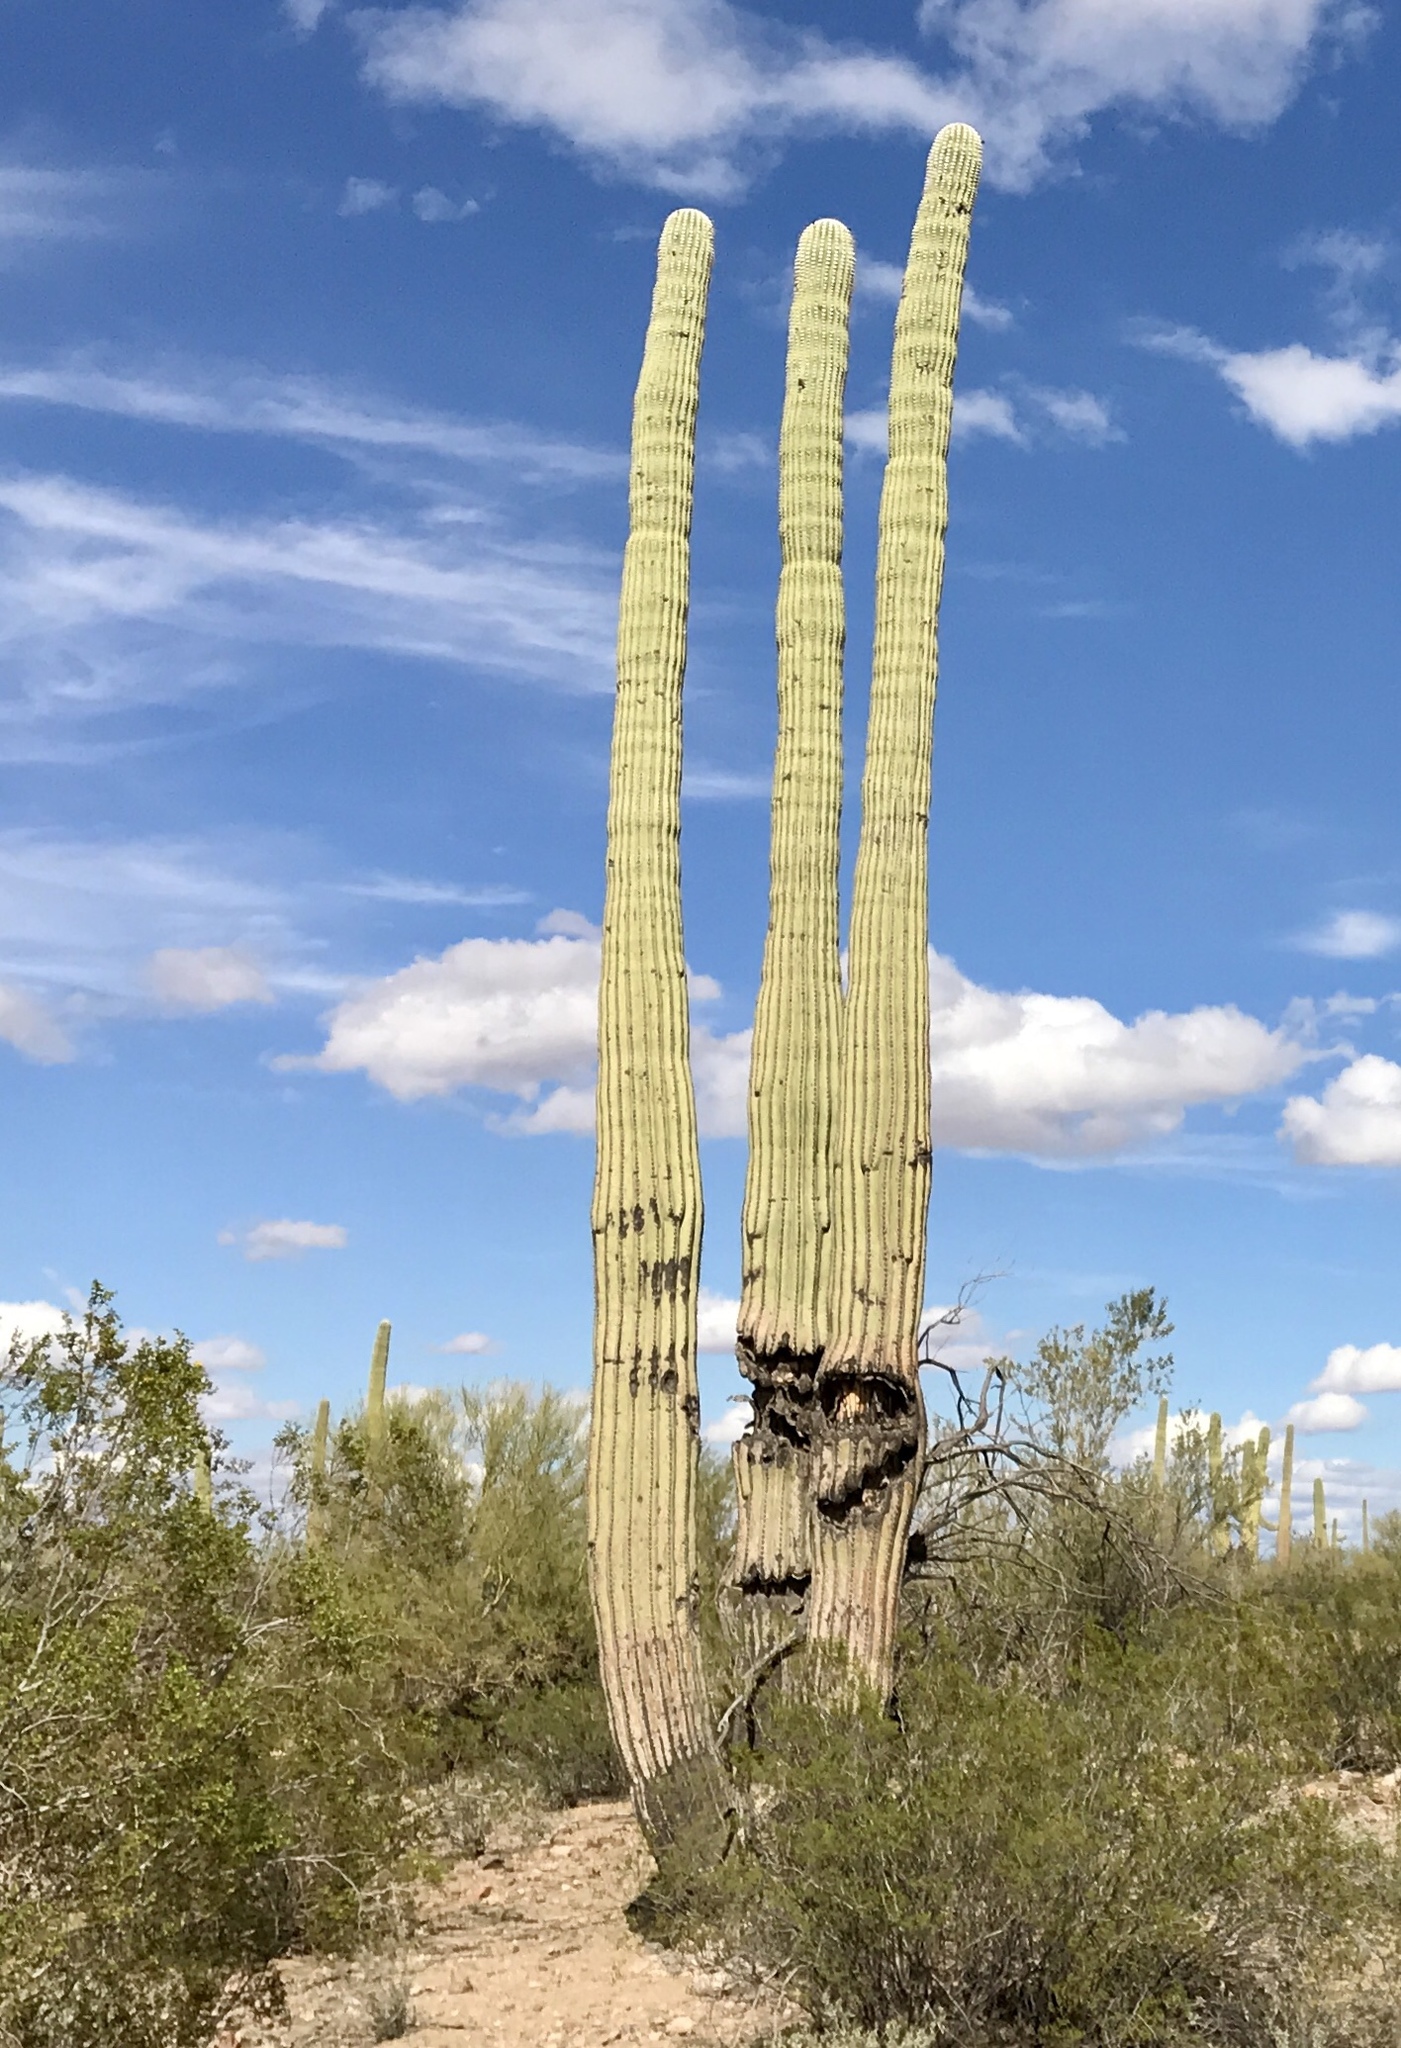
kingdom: Plantae
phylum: Tracheophyta
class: Magnoliopsida
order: Caryophyllales
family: Cactaceae
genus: Carnegiea
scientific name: Carnegiea gigantea
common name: Saguaro
